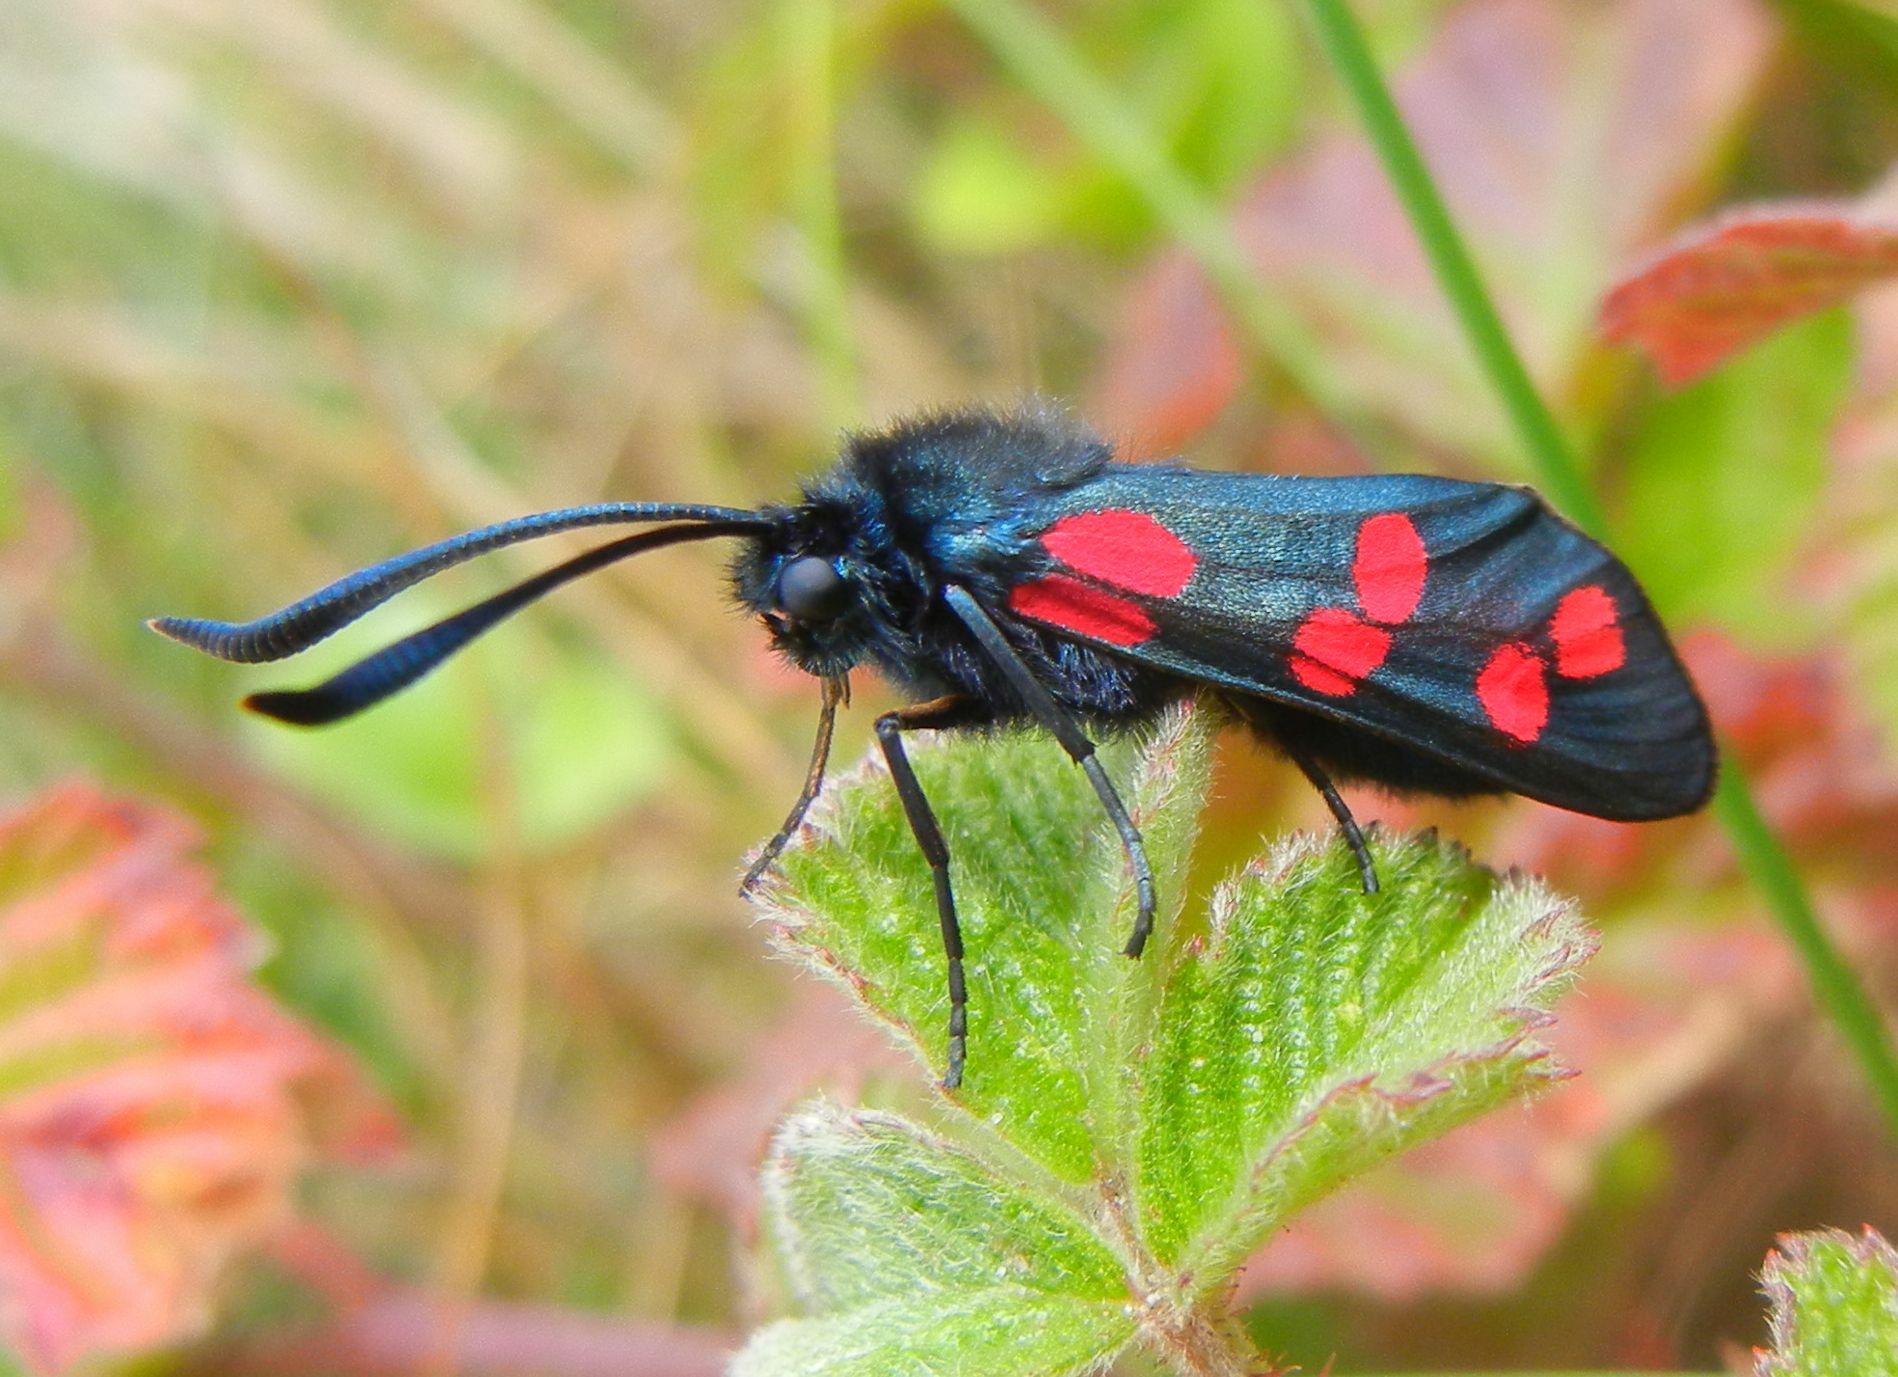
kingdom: Animalia
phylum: Arthropoda
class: Insecta
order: Lepidoptera
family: Zygaenidae
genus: Zygaena
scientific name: Zygaena filipendulae
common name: Six-spot burnet
